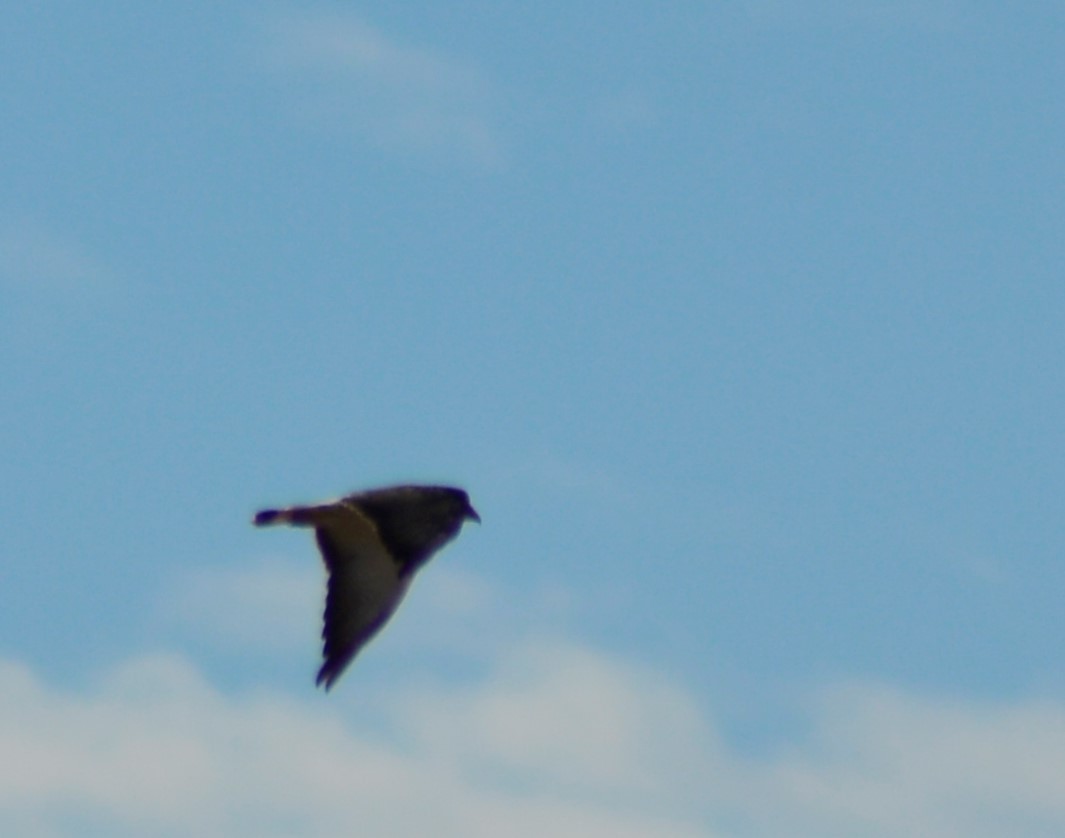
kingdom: Animalia
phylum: Chordata
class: Aves
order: Accipitriformes
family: Accipitridae
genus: Buteo
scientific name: Buteo polyosoma
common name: Variable hawk
